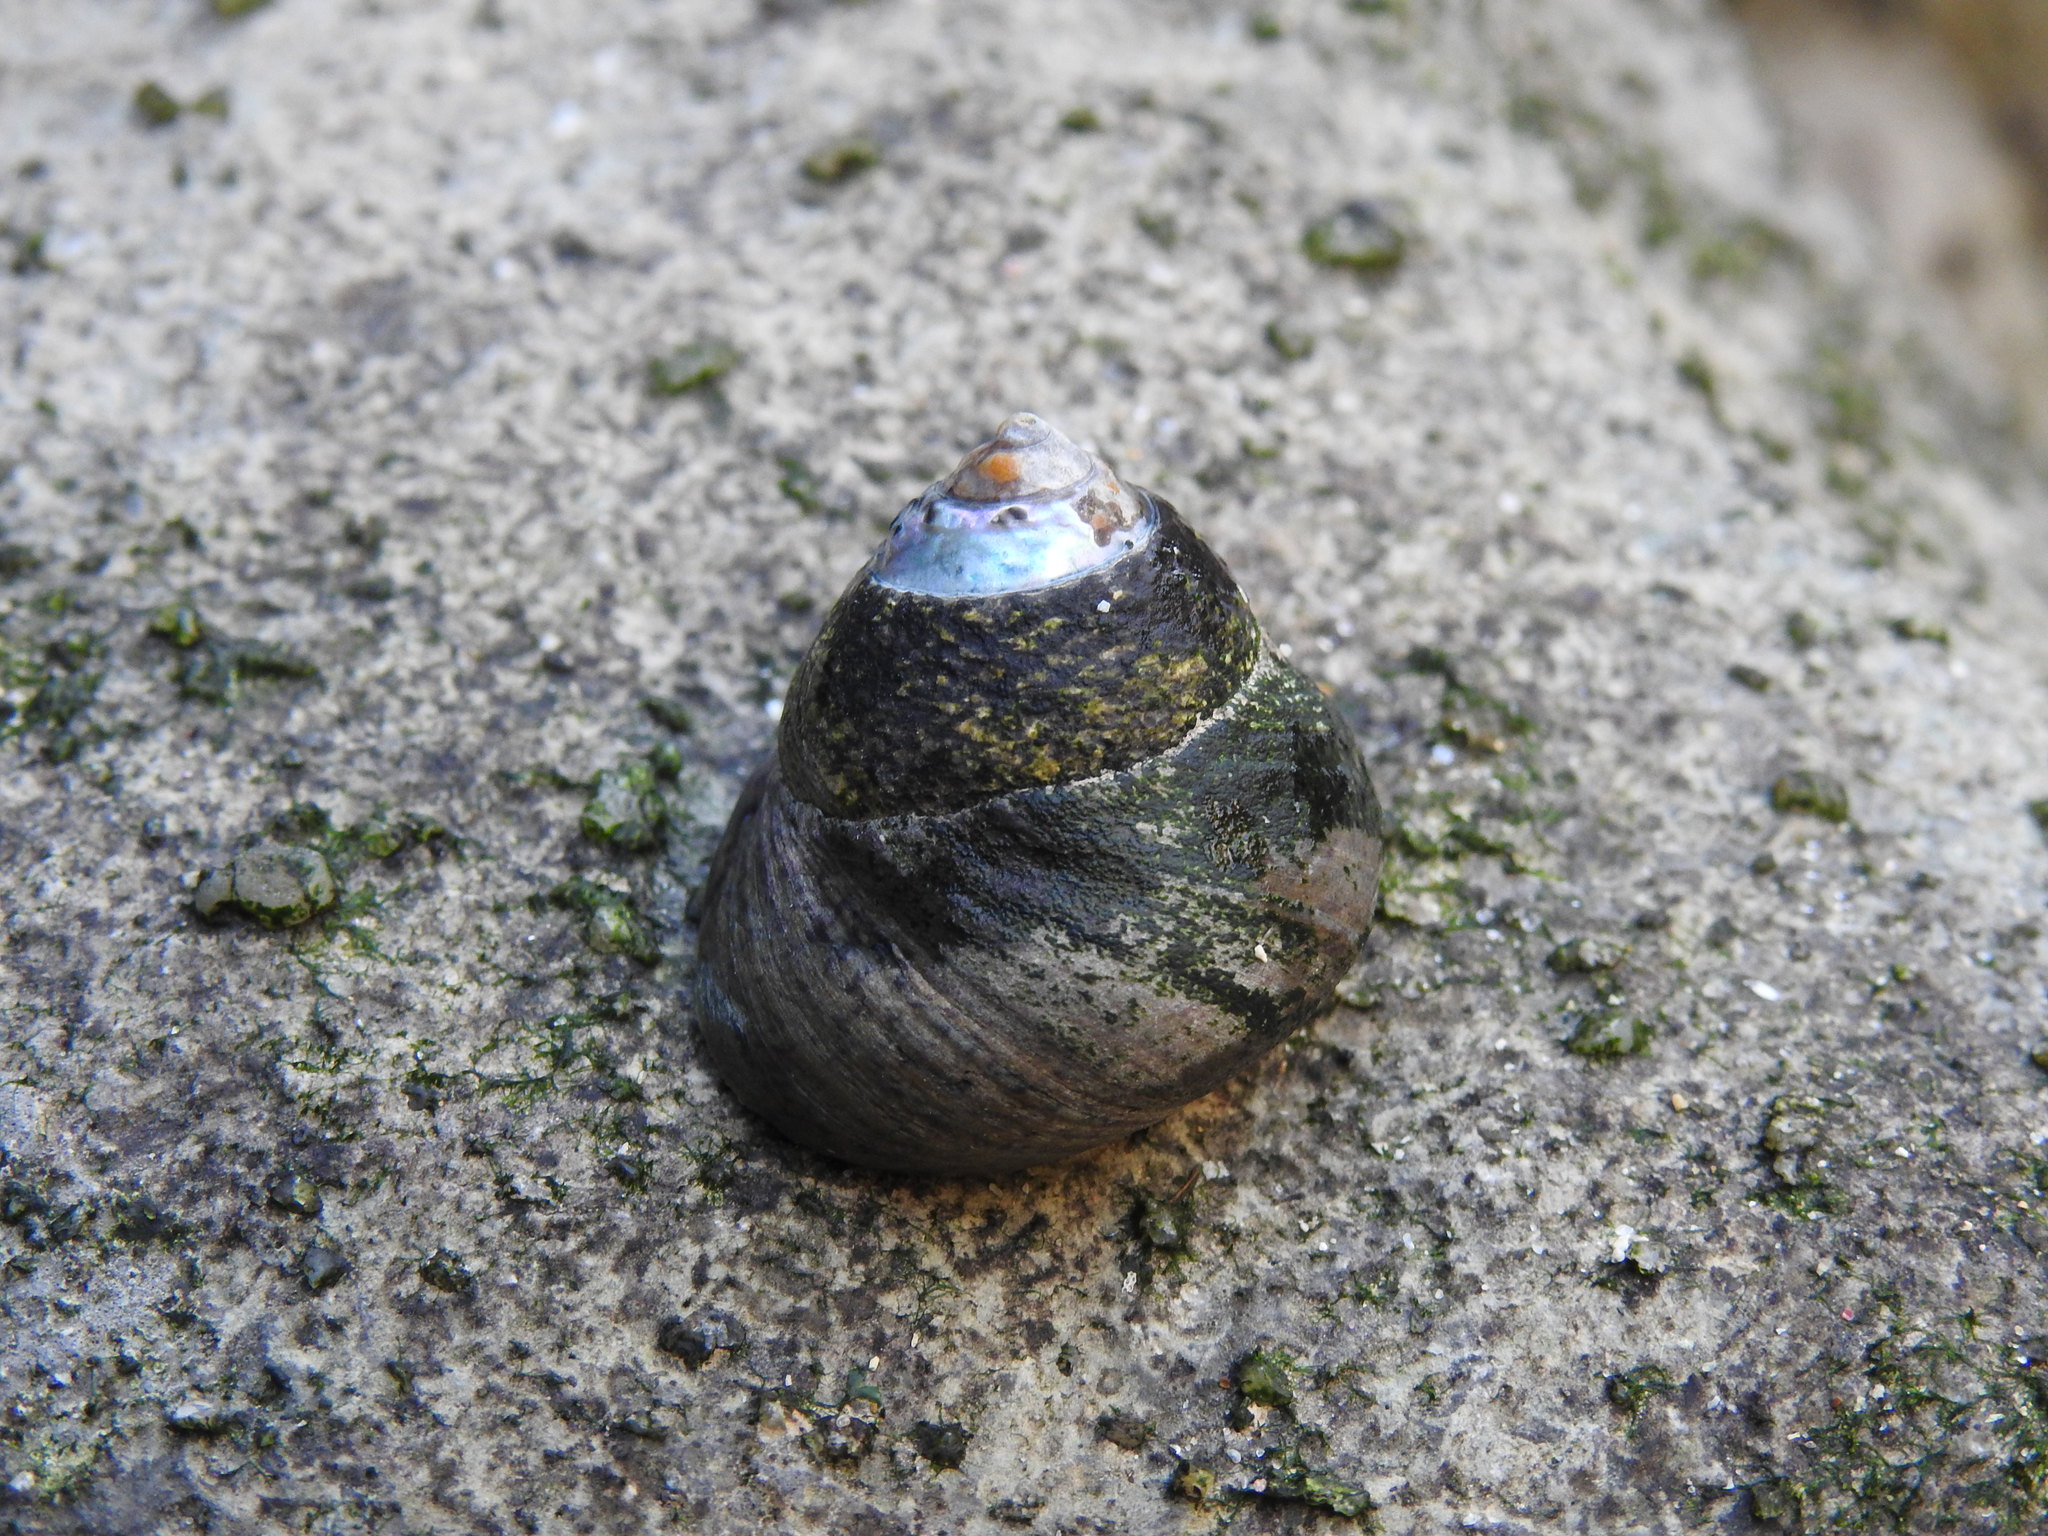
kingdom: Animalia
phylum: Mollusca
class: Gastropoda
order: Trochida
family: Trochidae
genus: Phorcus
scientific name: Phorcus lineatus
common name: Toothed top shell
